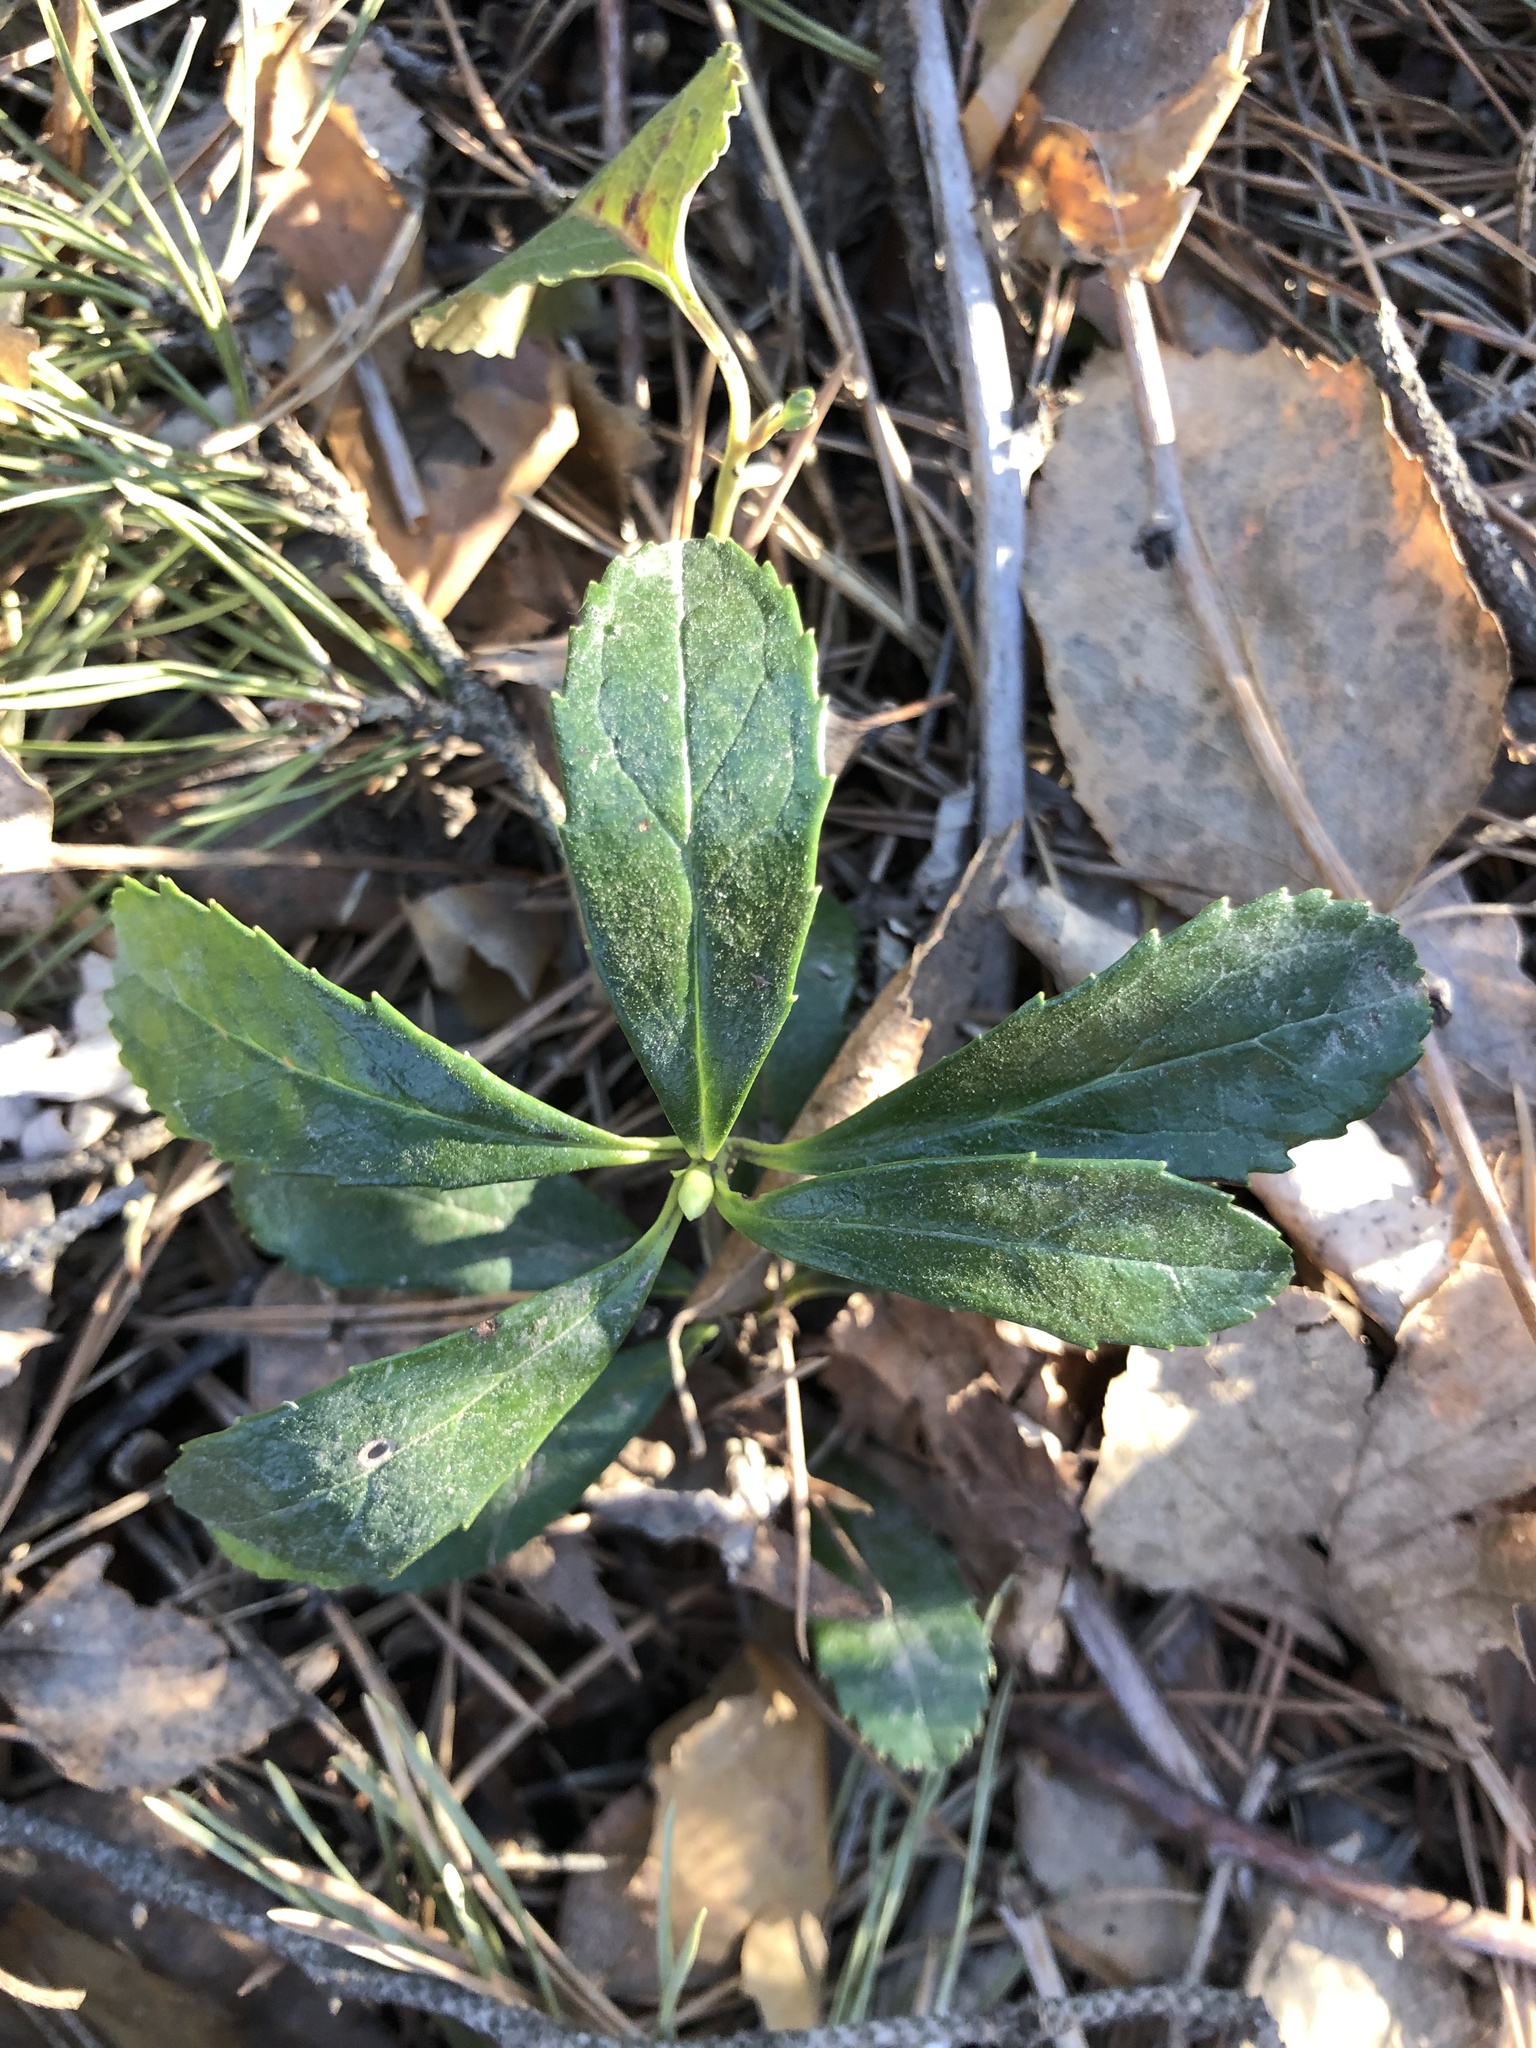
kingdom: Plantae
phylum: Tracheophyta
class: Magnoliopsida
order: Ericales
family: Ericaceae
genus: Chimaphila
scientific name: Chimaphila umbellata
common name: Pipsissewa
